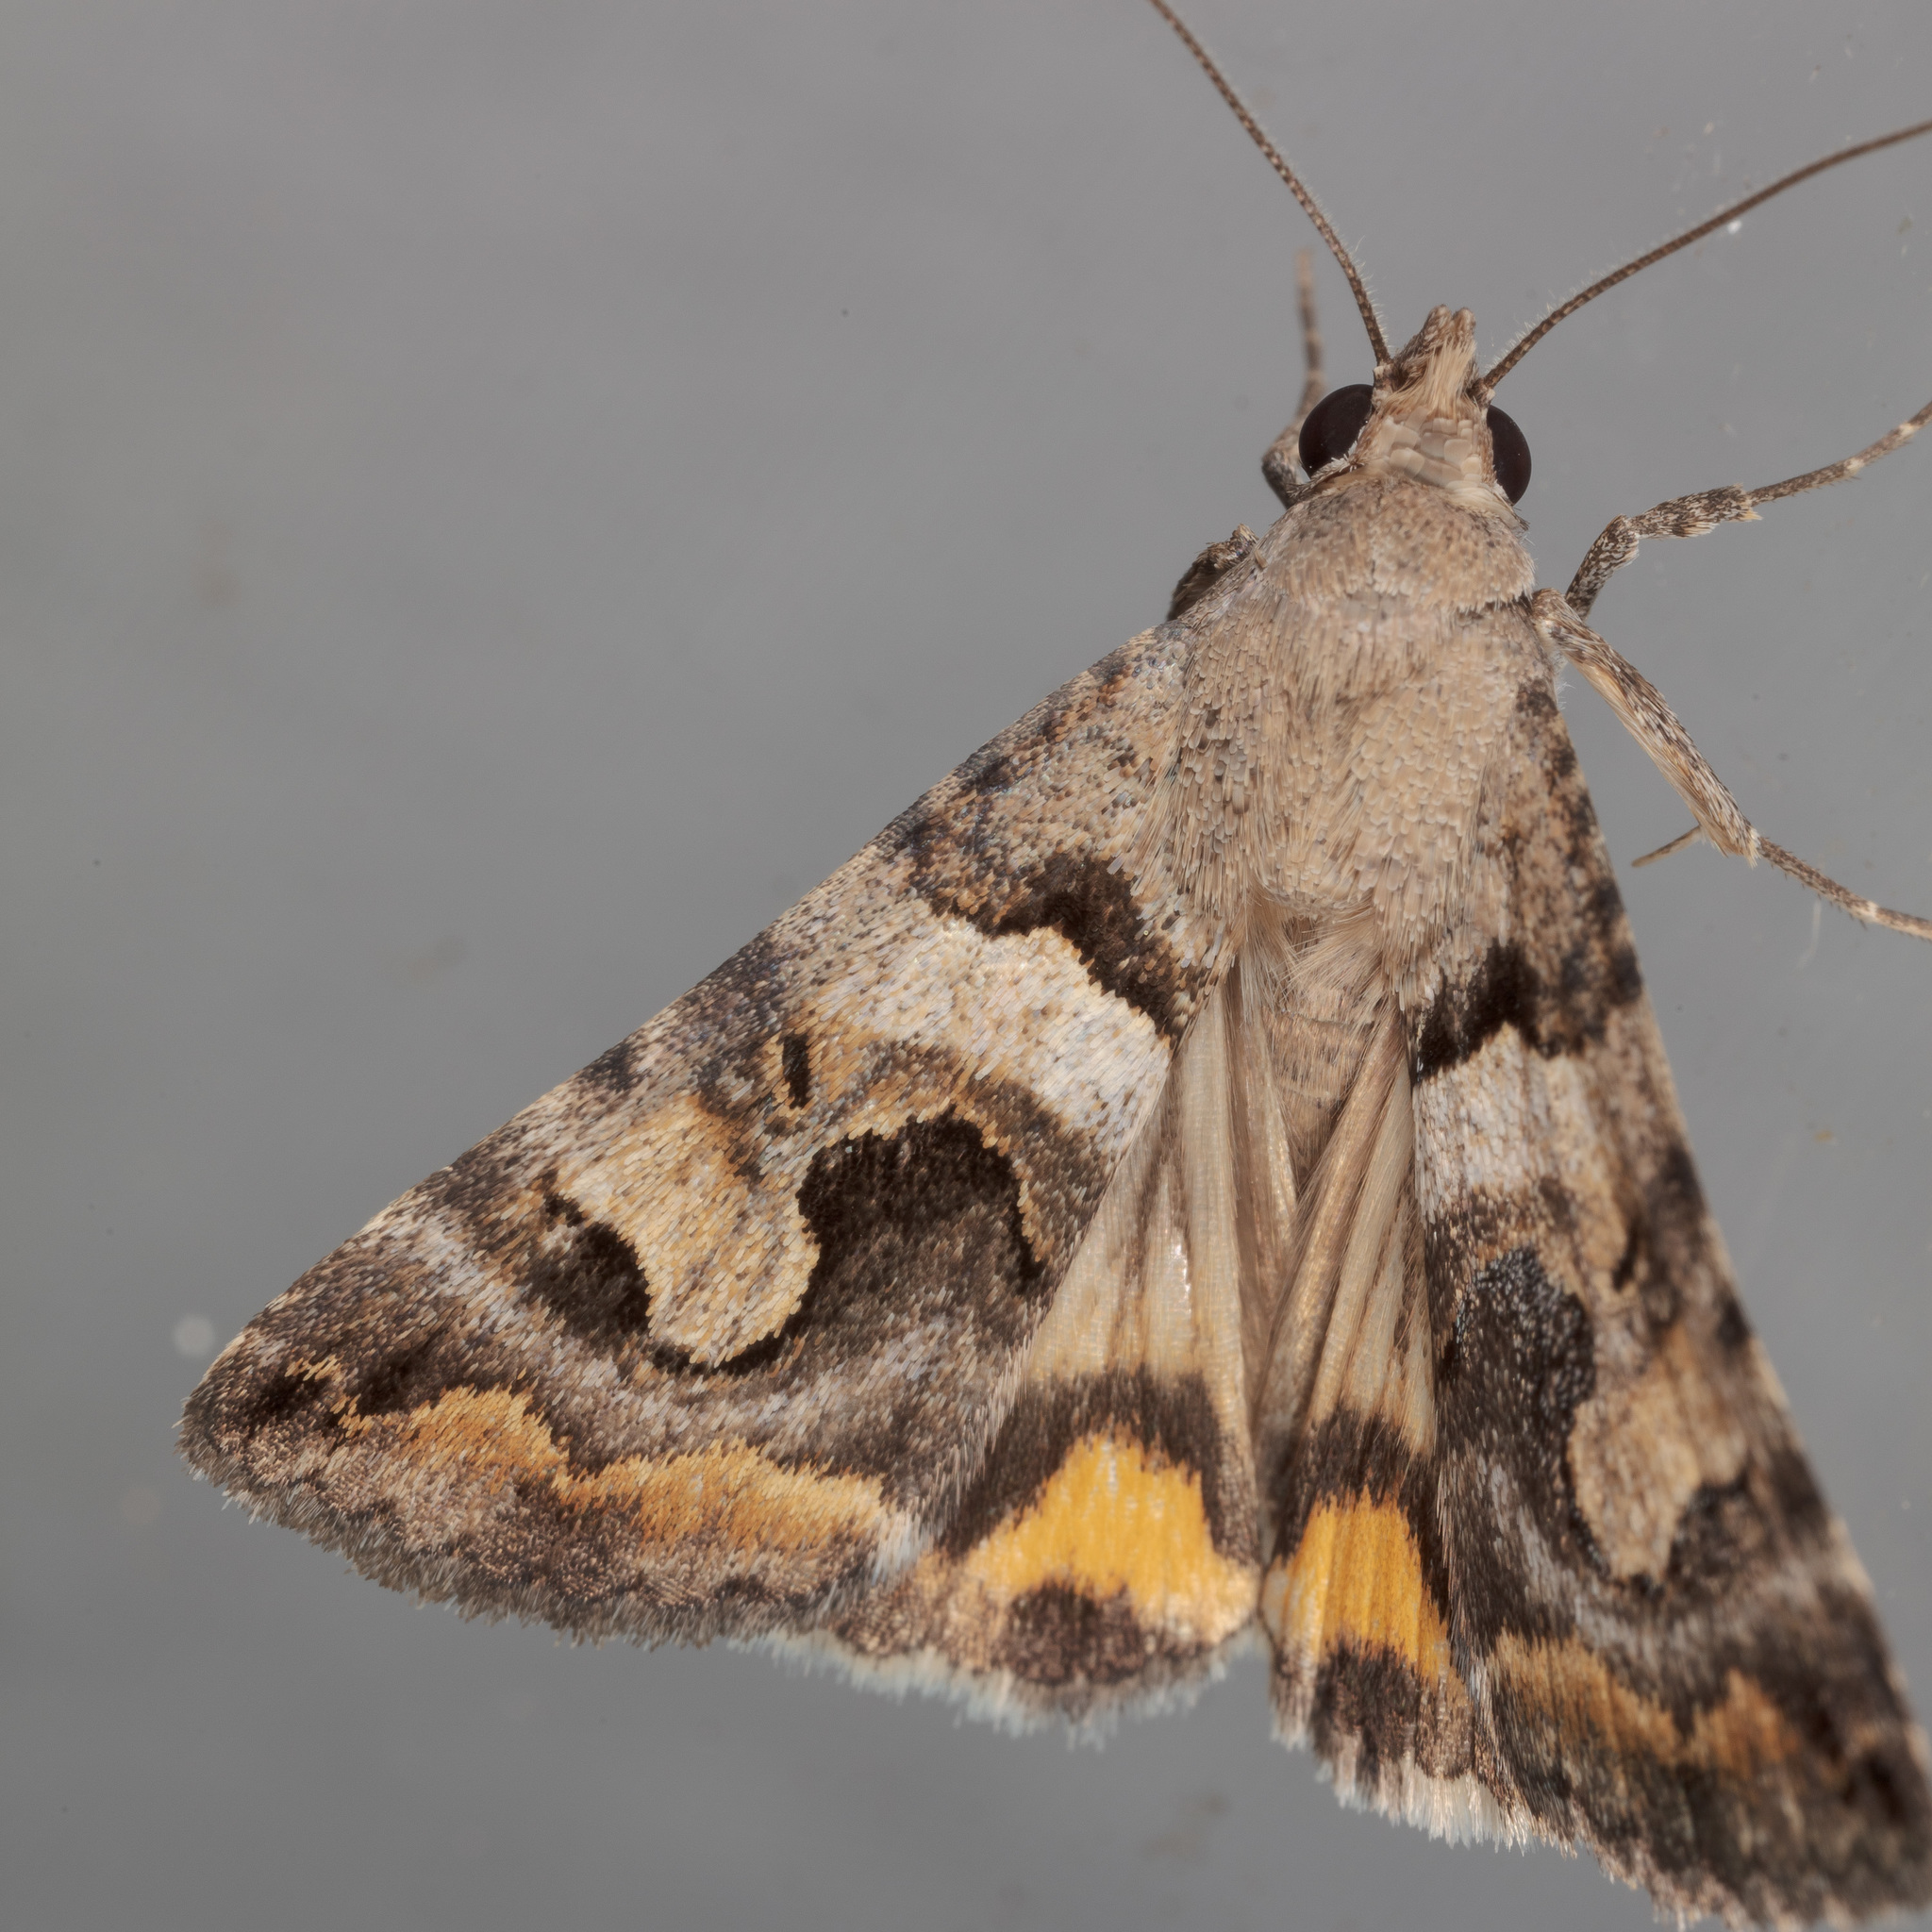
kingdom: Animalia
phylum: Arthropoda
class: Insecta
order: Lepidoptera
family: Erebidae
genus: Bulia
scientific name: Bulia
